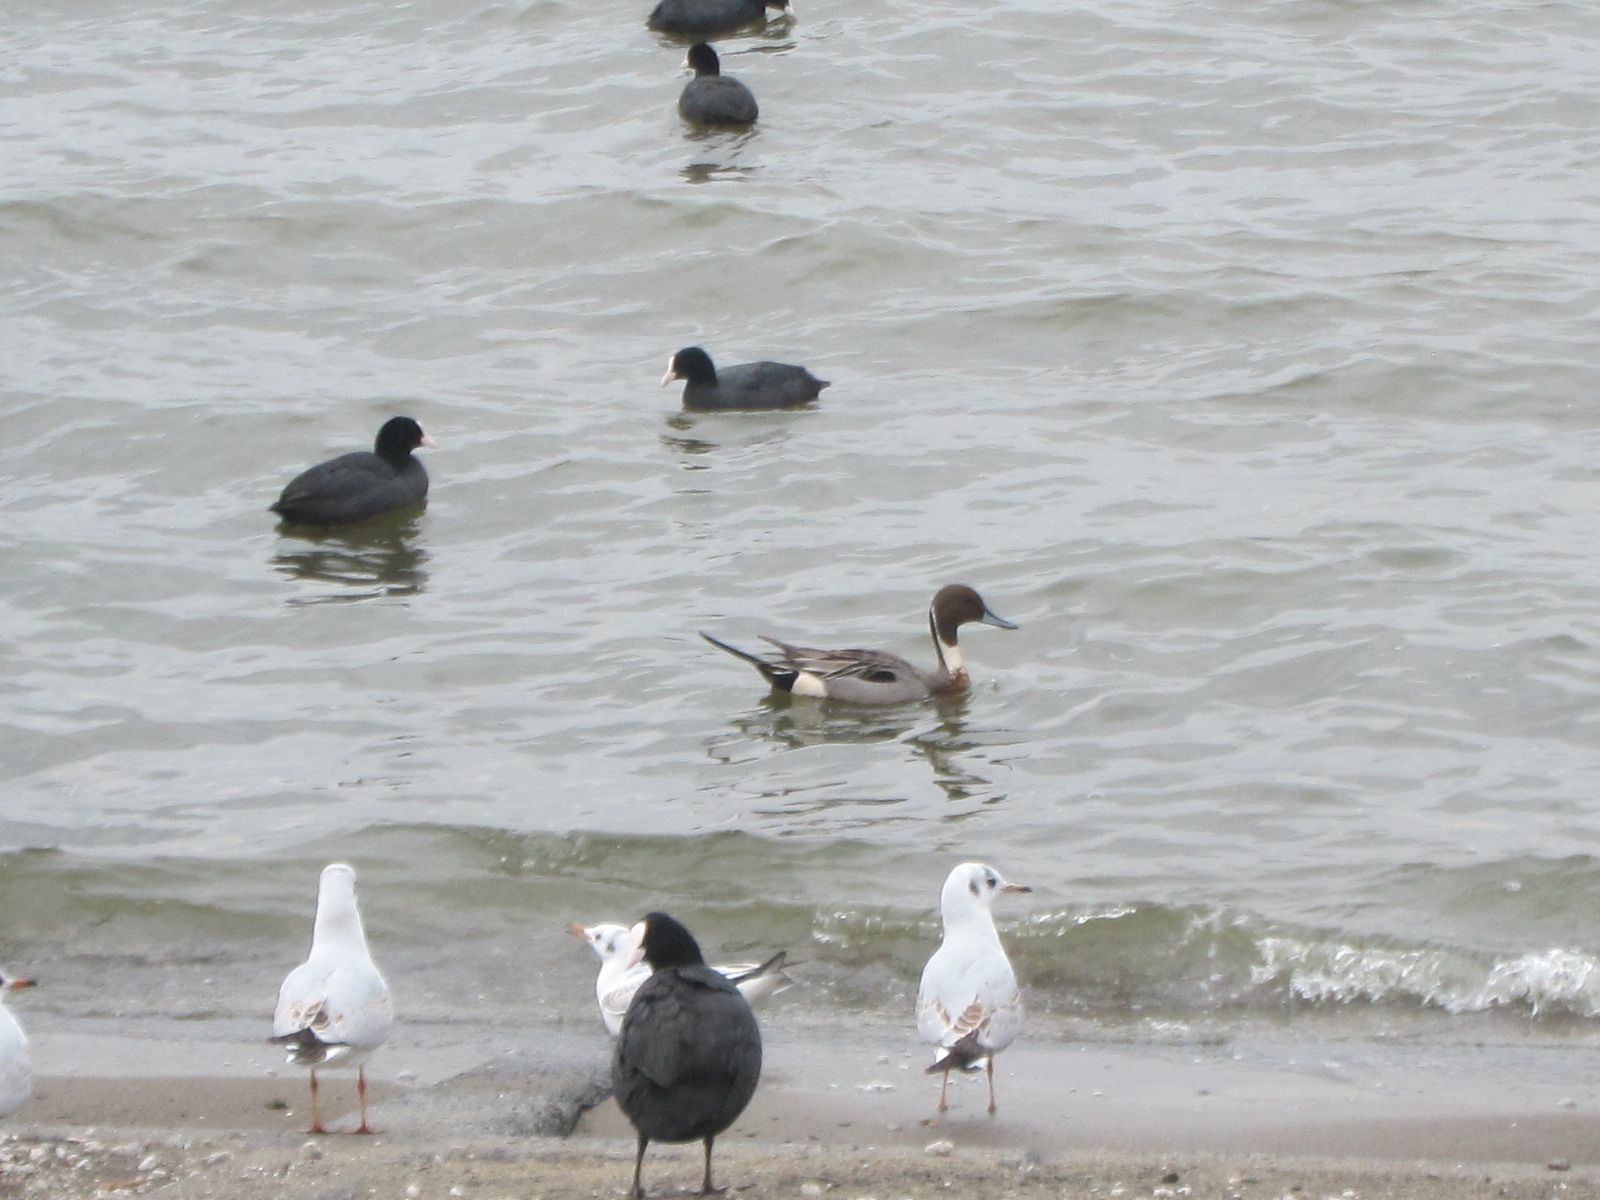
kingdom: Animalia
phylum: Chordata
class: Aves
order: Anseriformes
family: Anatidae
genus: Anas
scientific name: Anas acuta
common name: Northern pintail
